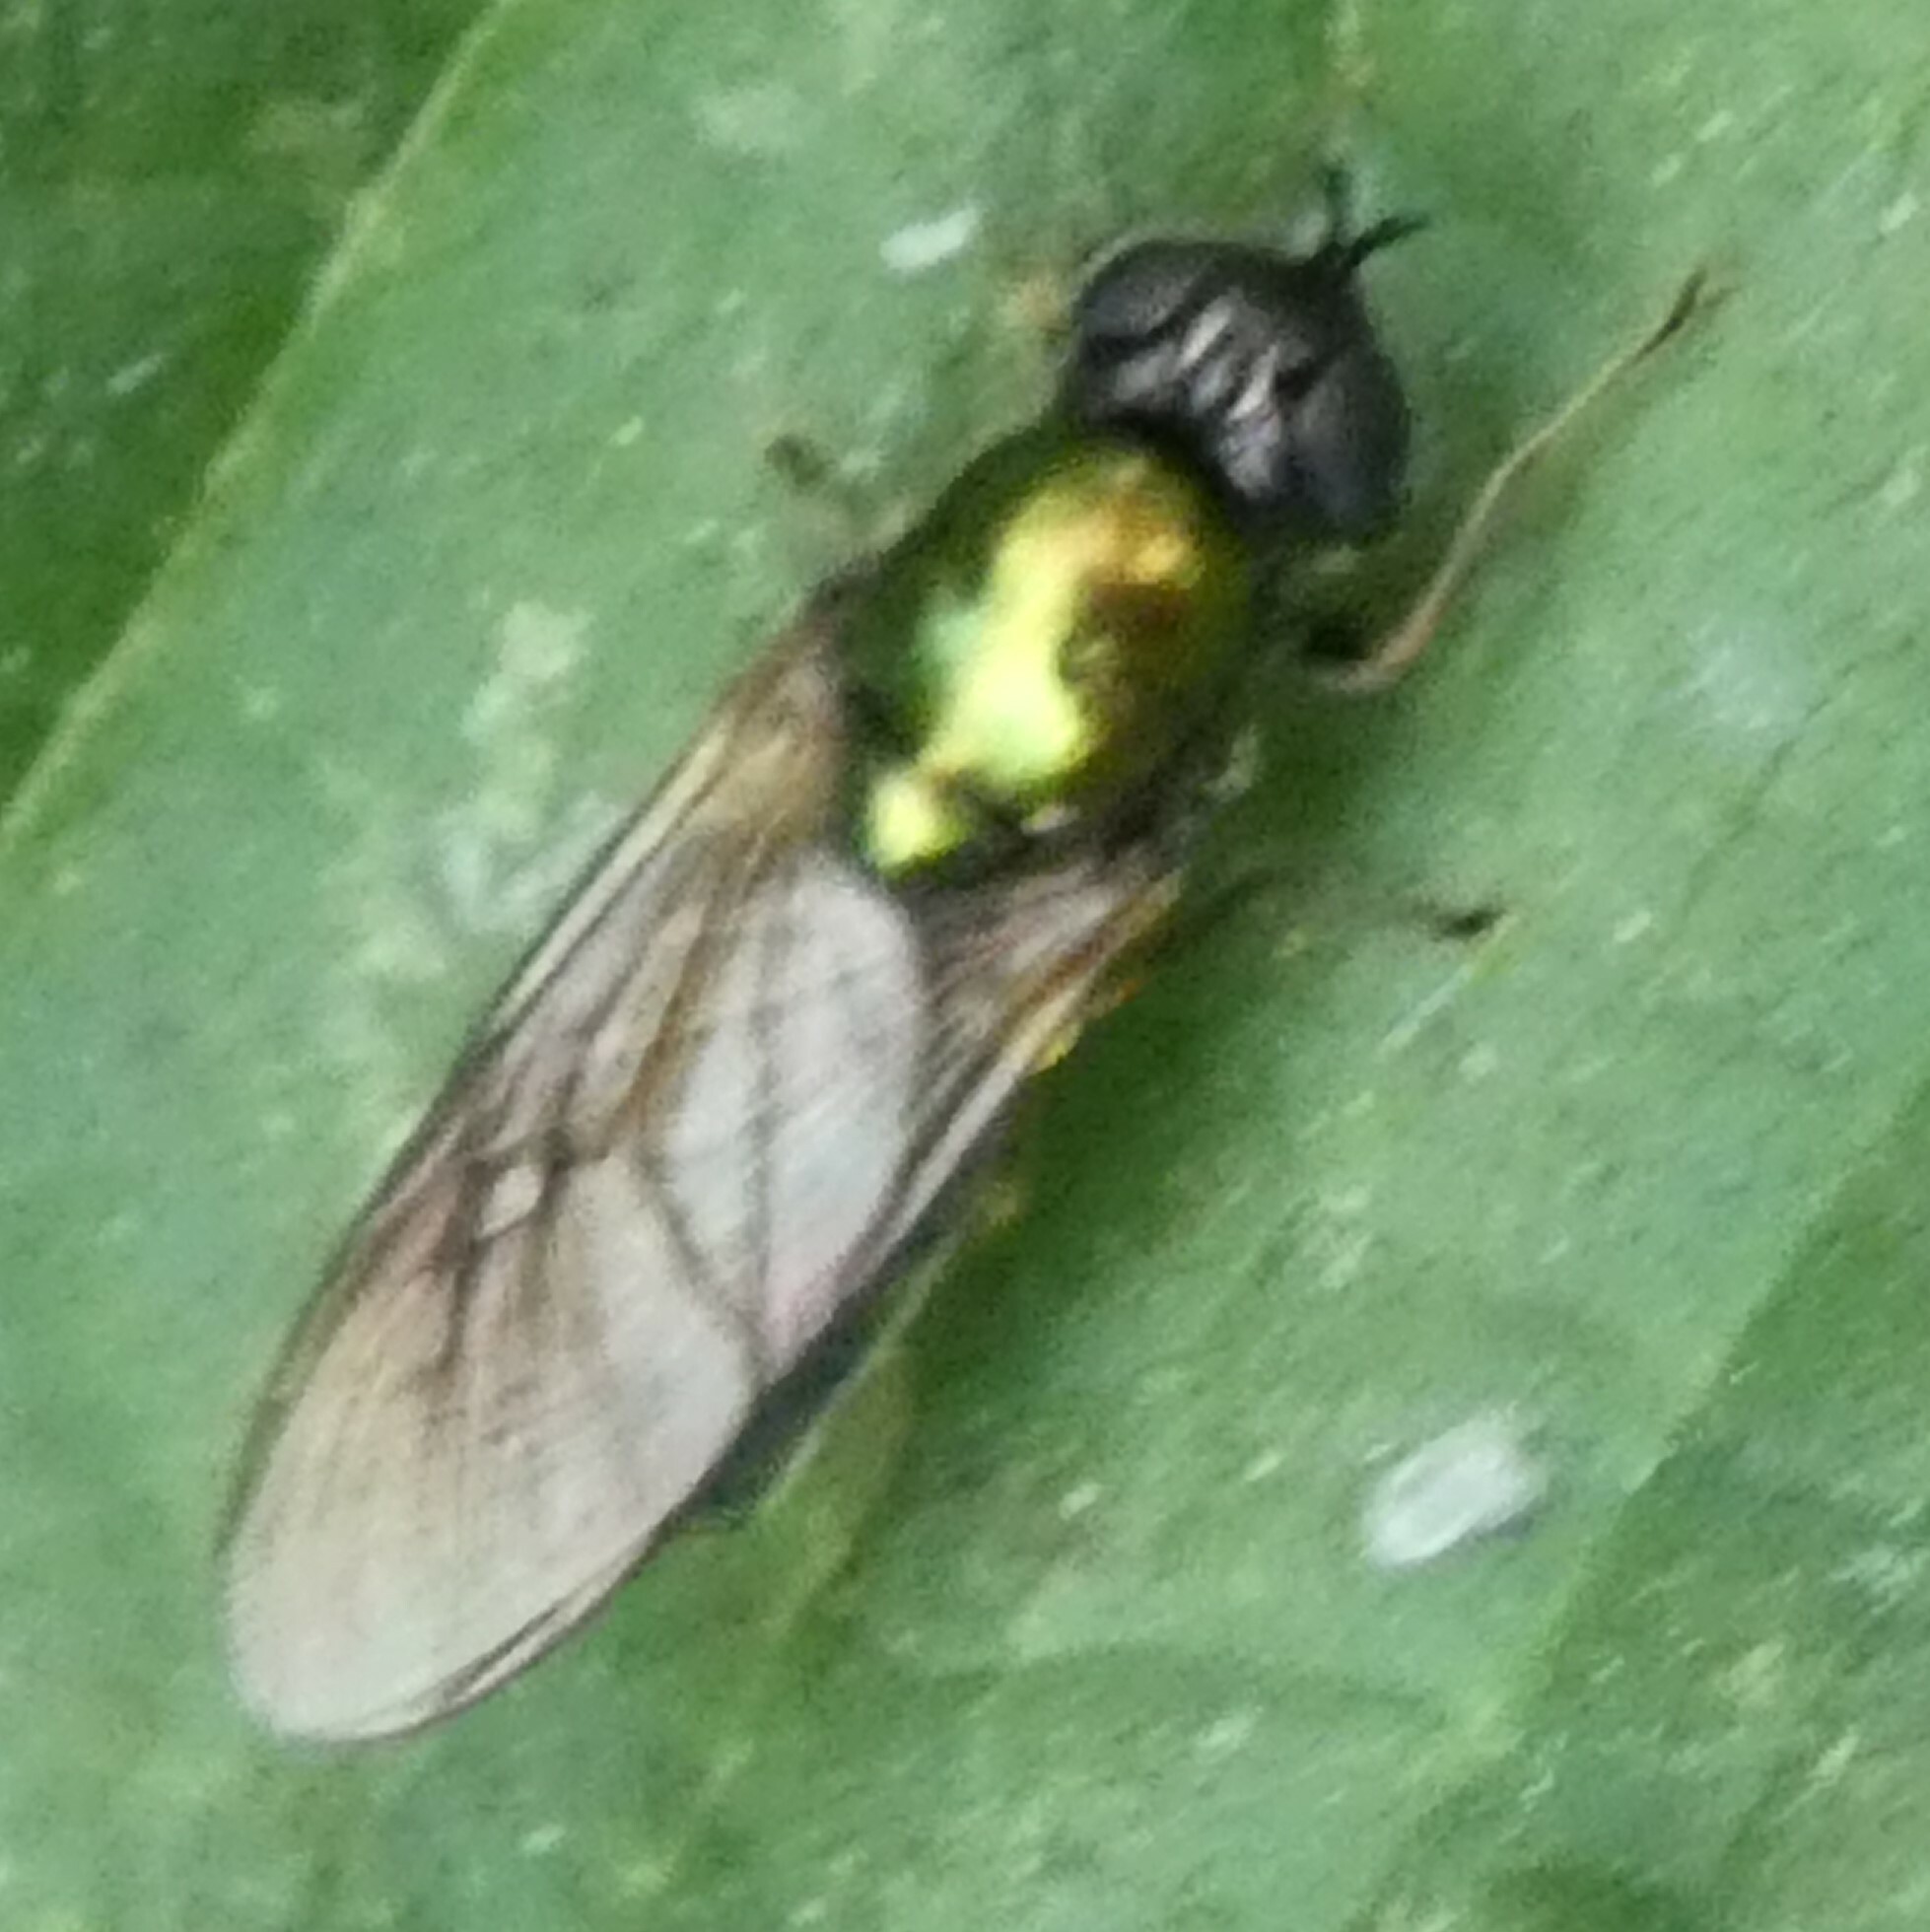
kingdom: Animalia
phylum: Arthropoda
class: Insecta
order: Diptera
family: Stratiomyidae
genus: Chloromyia
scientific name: Chloromyia formosa
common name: Soldier fly
